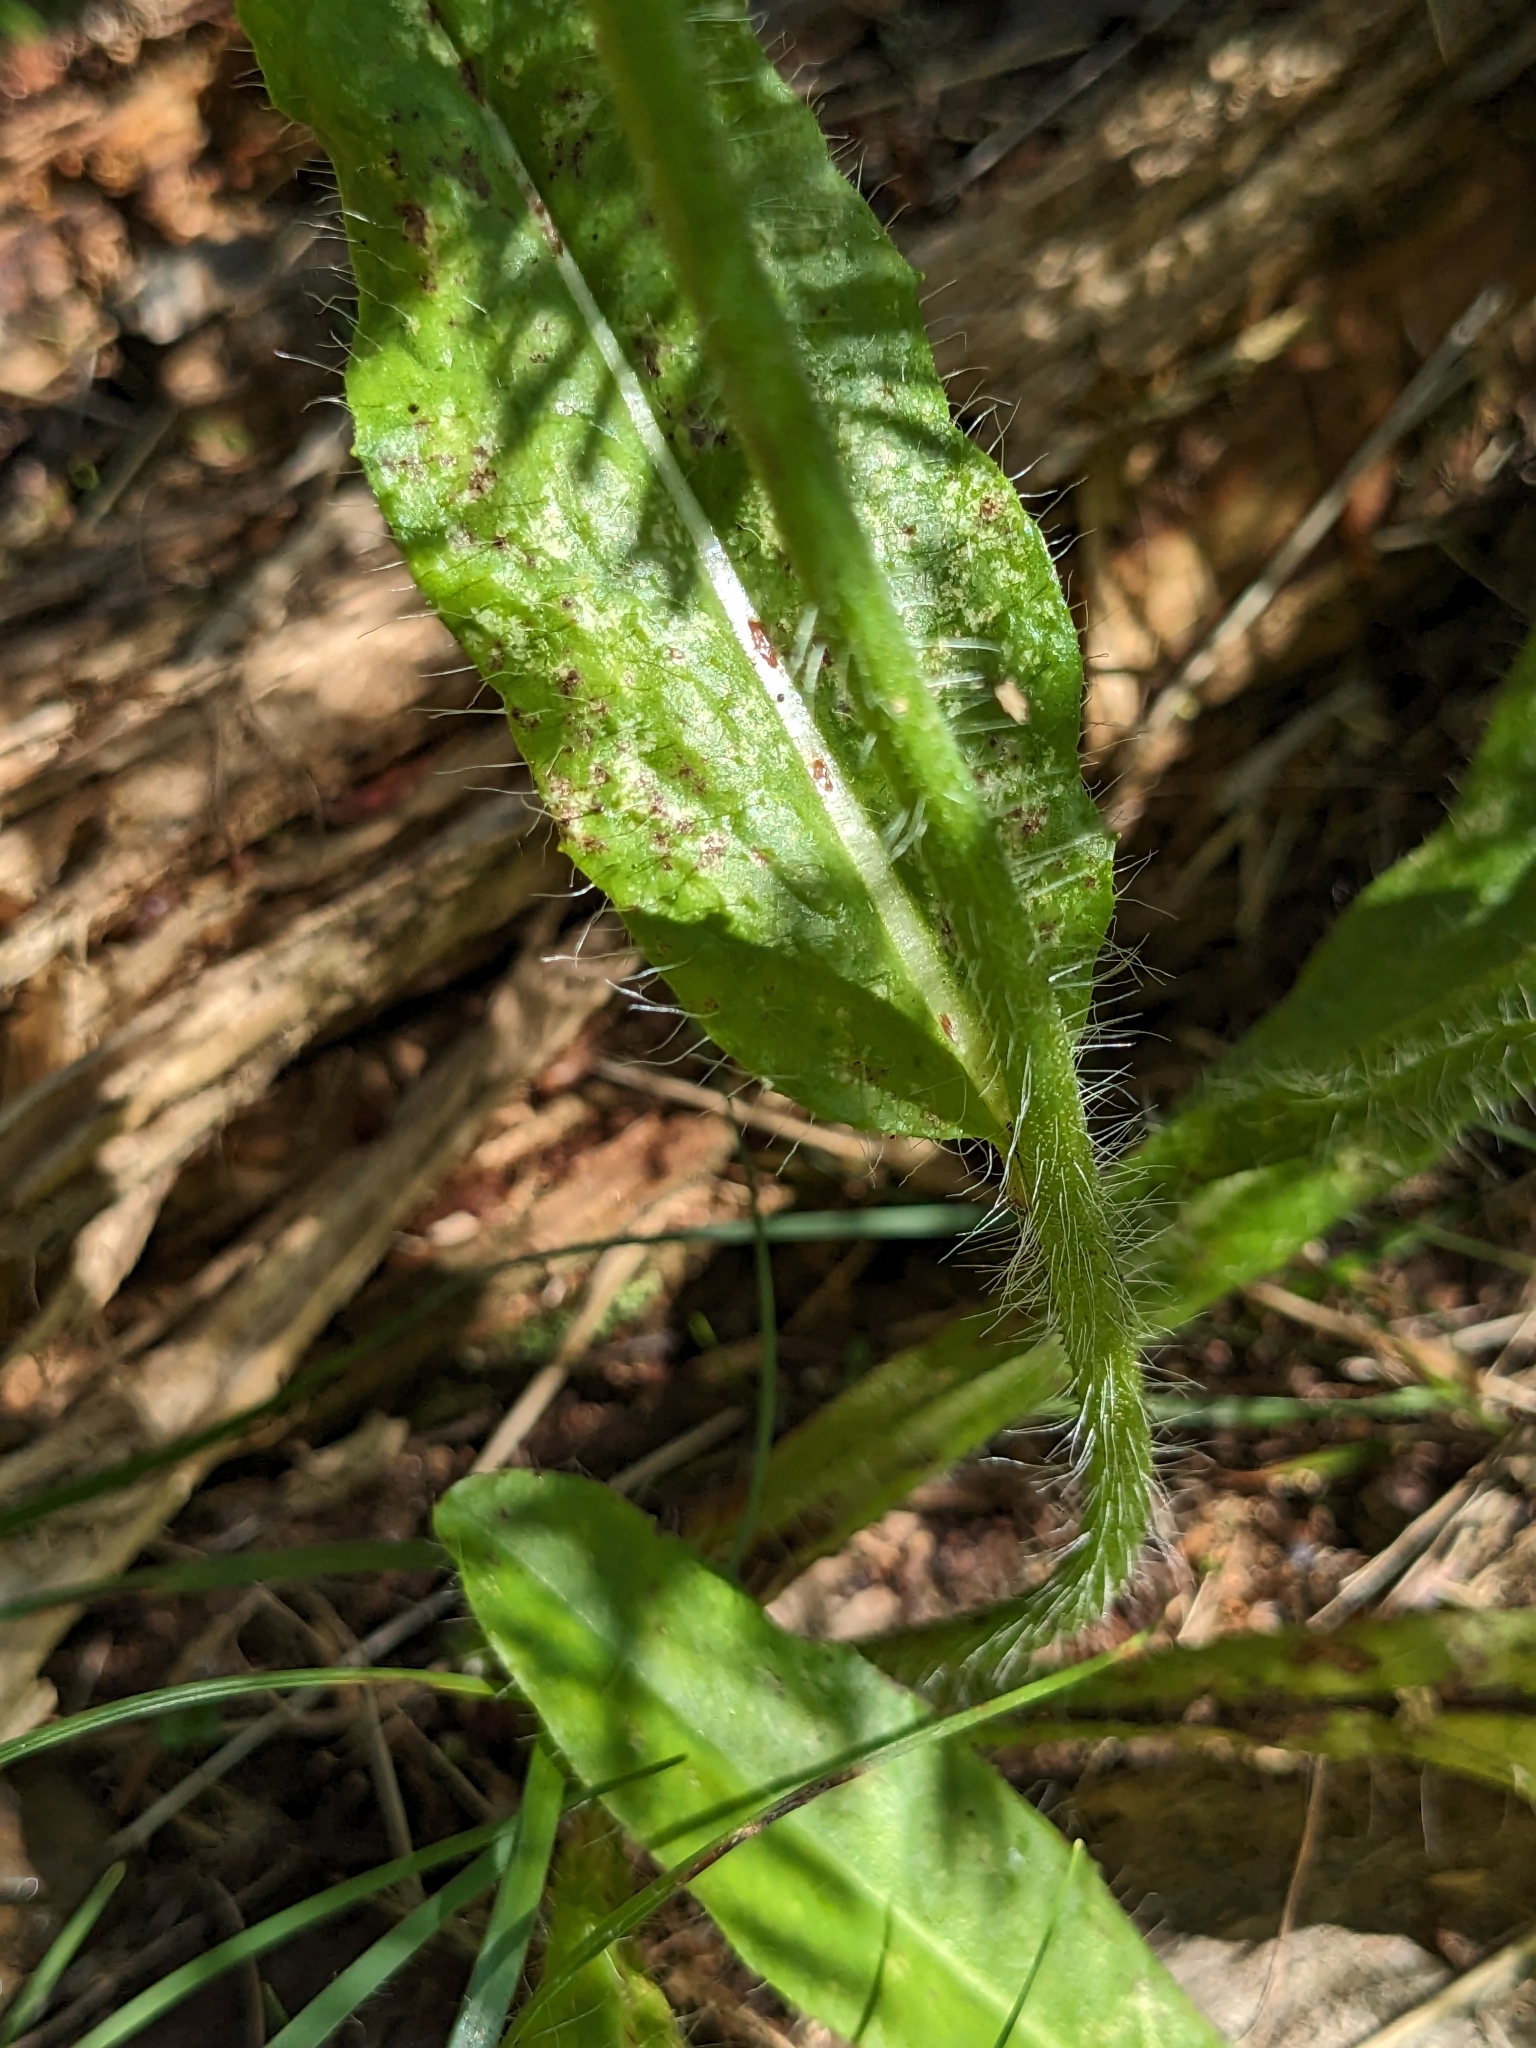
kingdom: Plantae
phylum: Tracheophyta
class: Magnoliopsida
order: Asterales
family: Asteraceae
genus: Pilosella
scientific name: Pilosella aurantiaca
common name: Fox-and-cubs
